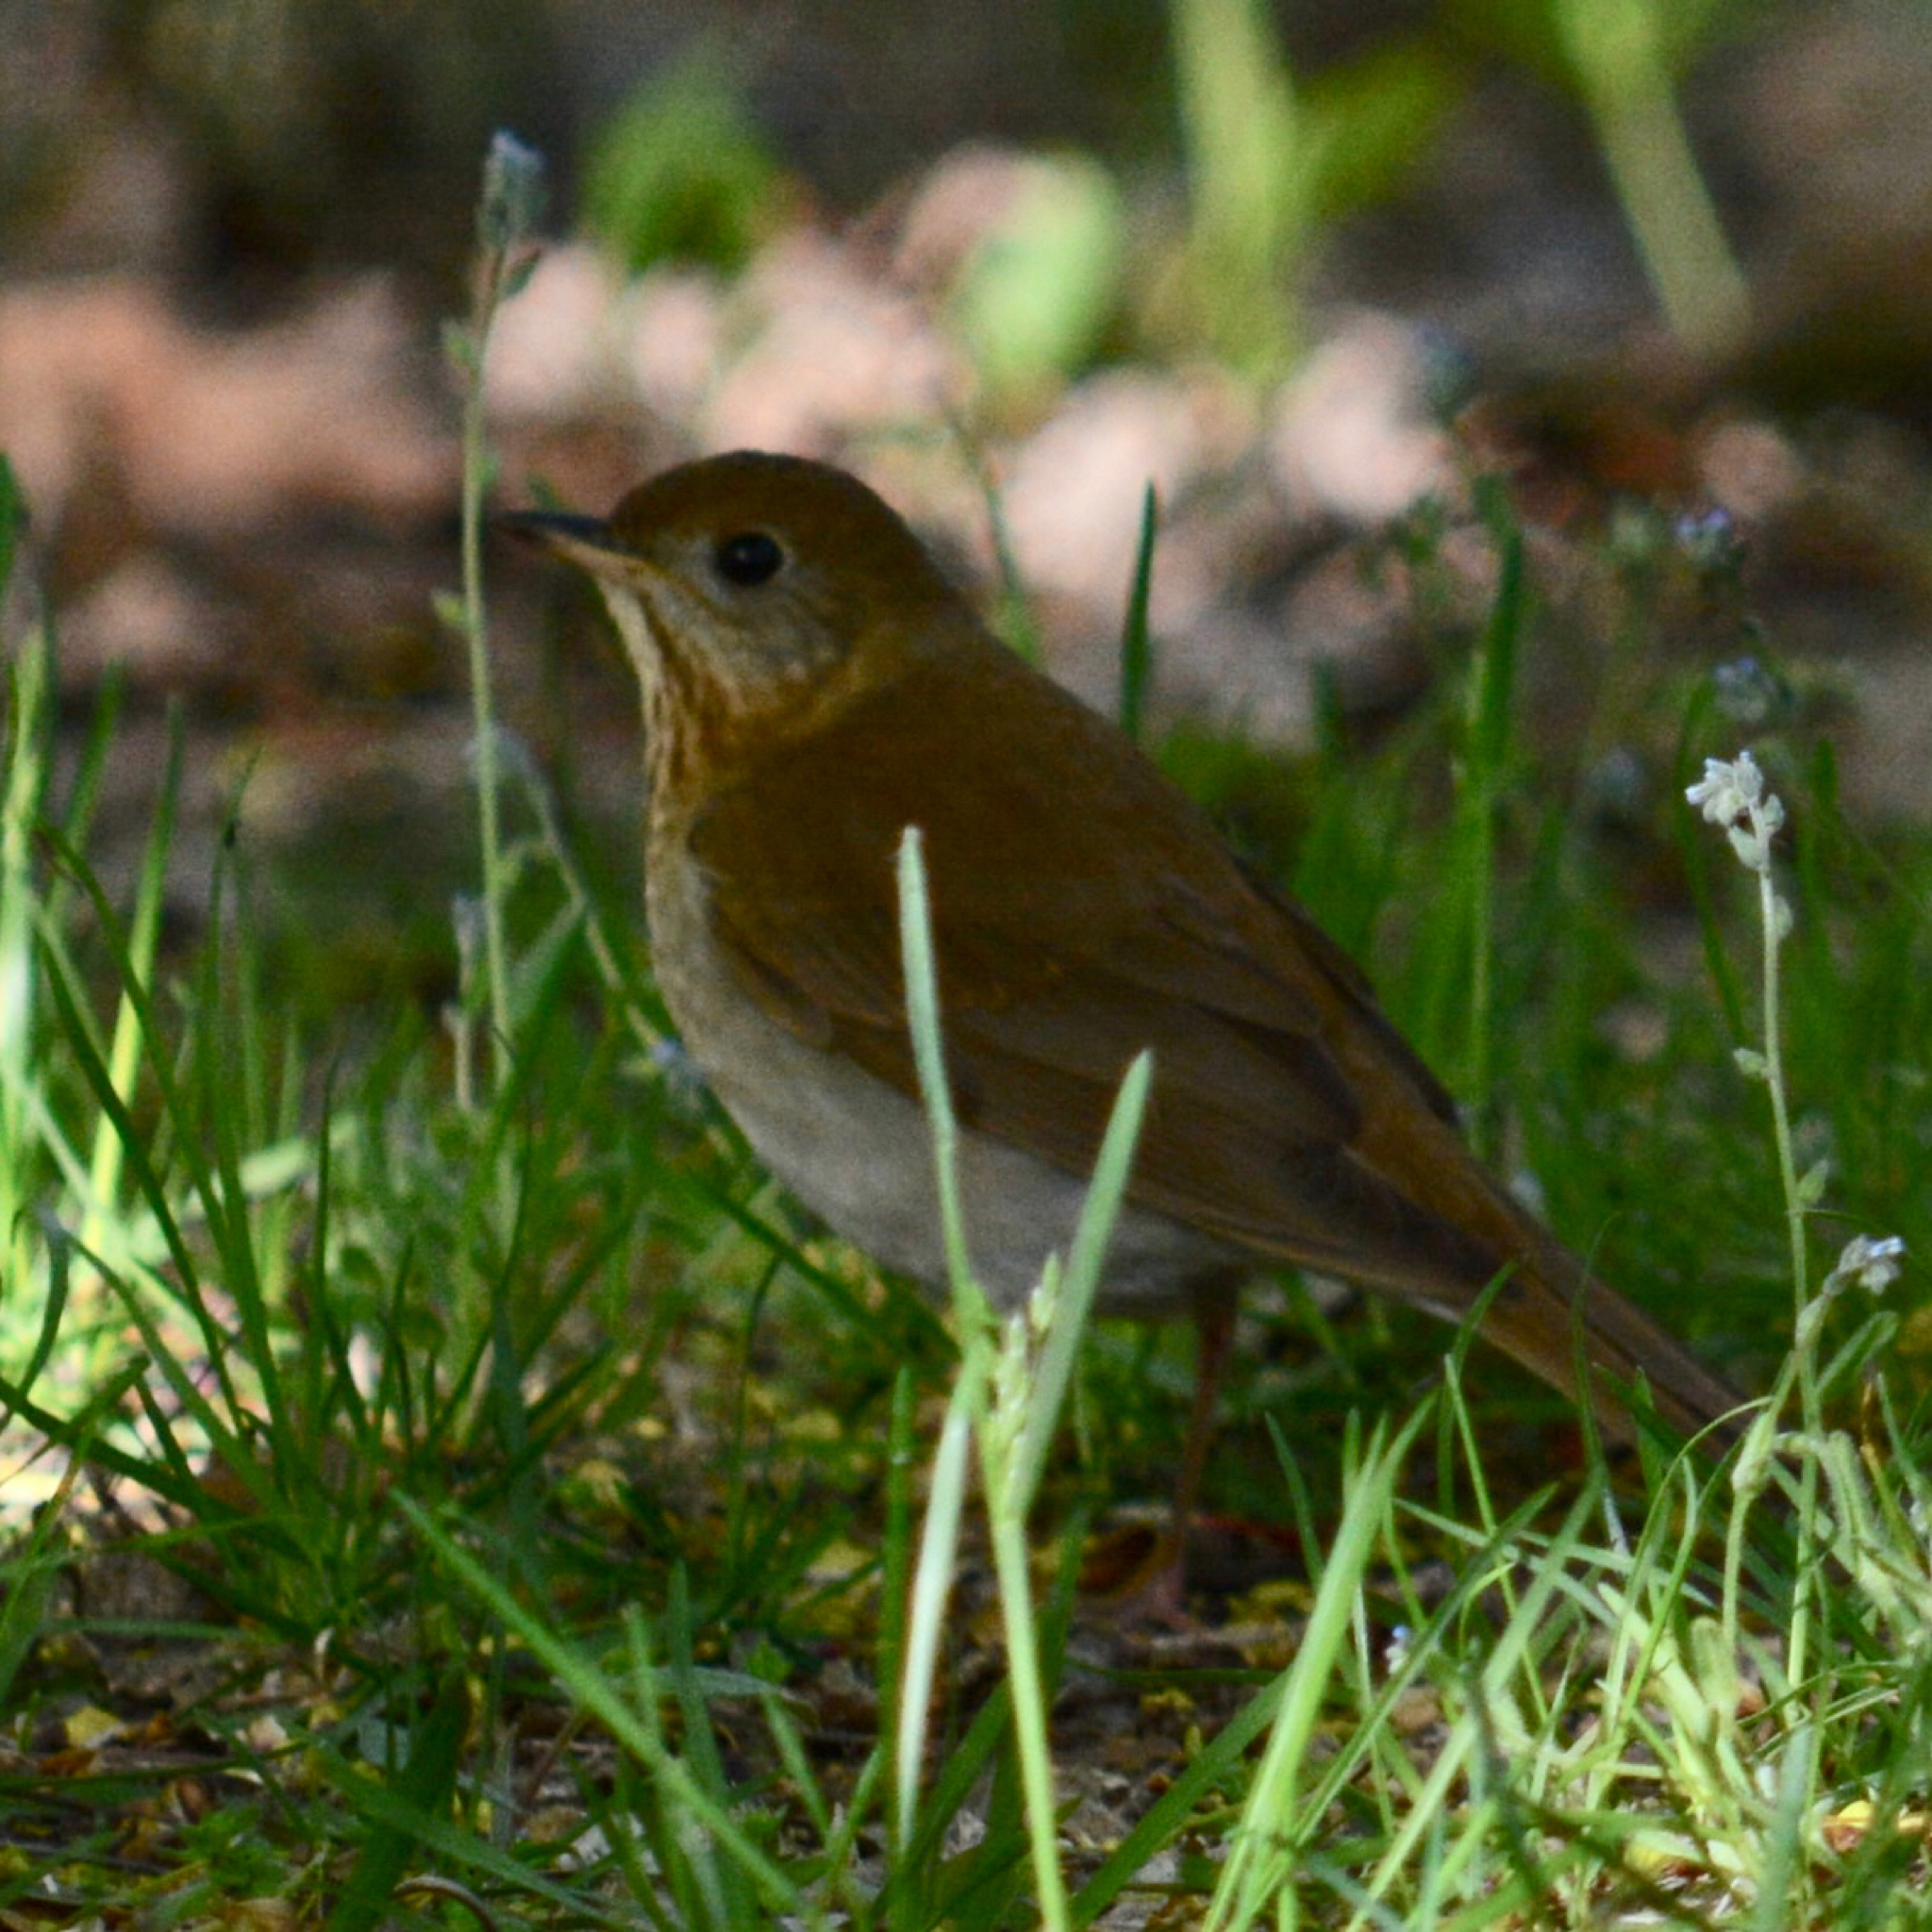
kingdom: Animalia
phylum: Chordata
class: Aves
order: Passeriformes
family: Turdidae
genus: Catharus
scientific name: Catharus fuscescens
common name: Veery
